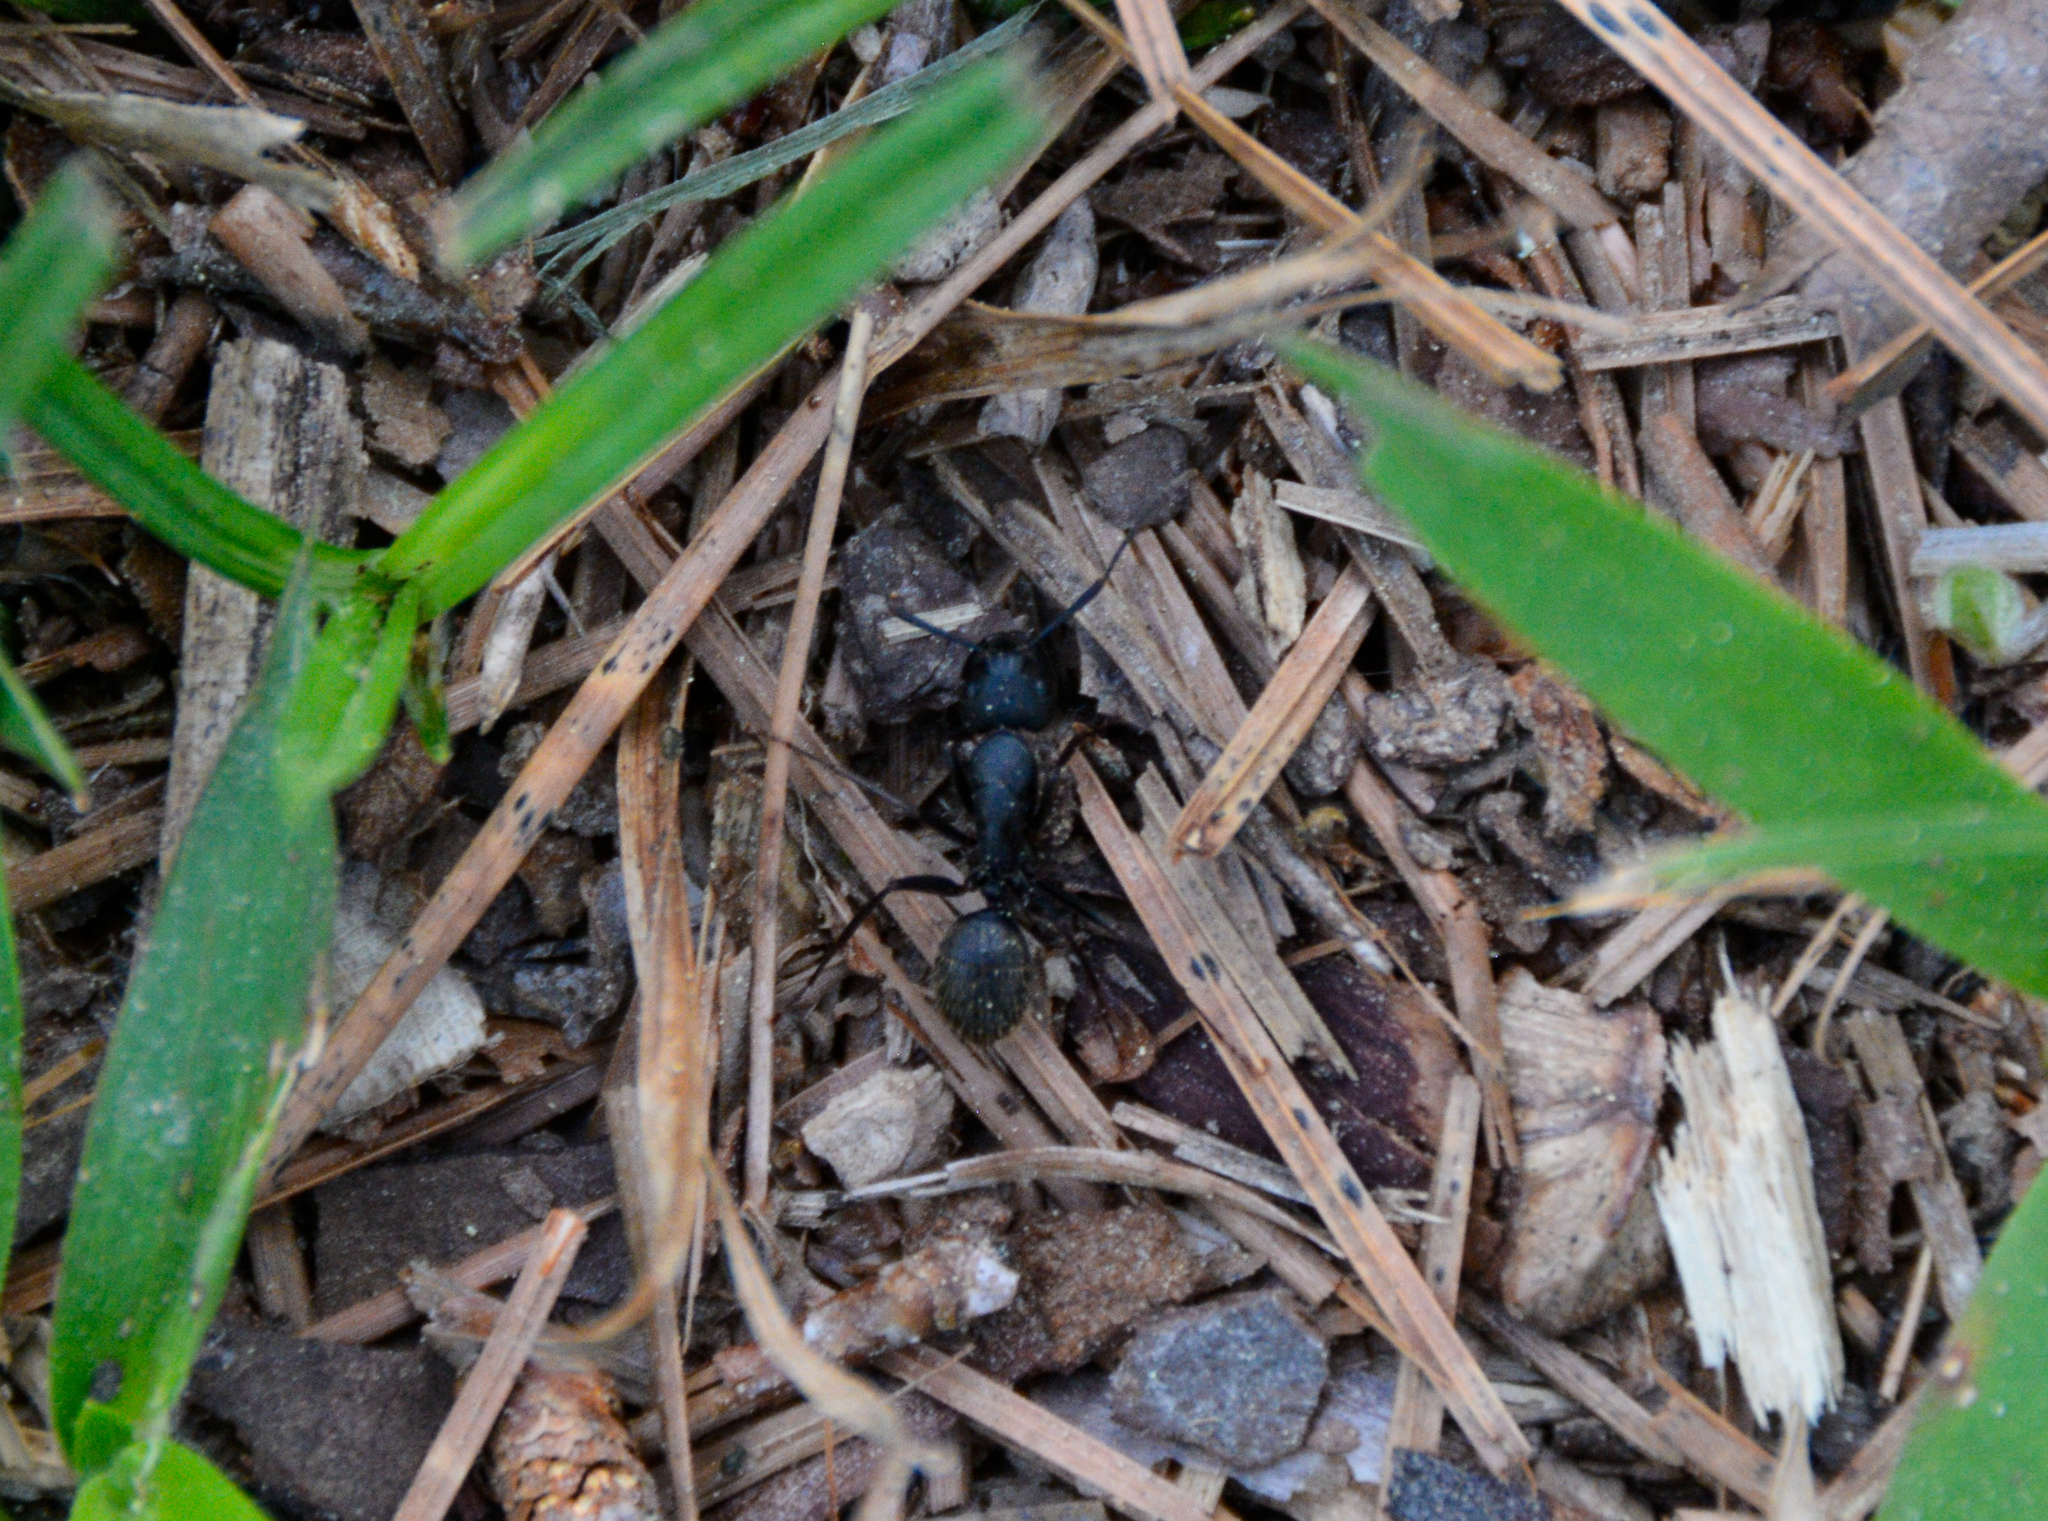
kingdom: Animalia
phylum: Arthropoda
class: Insecta
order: Hymenoptera
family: Formicidae
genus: Camponotus
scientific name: Camponotus pennsylvanicus
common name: Black carpenter ant
